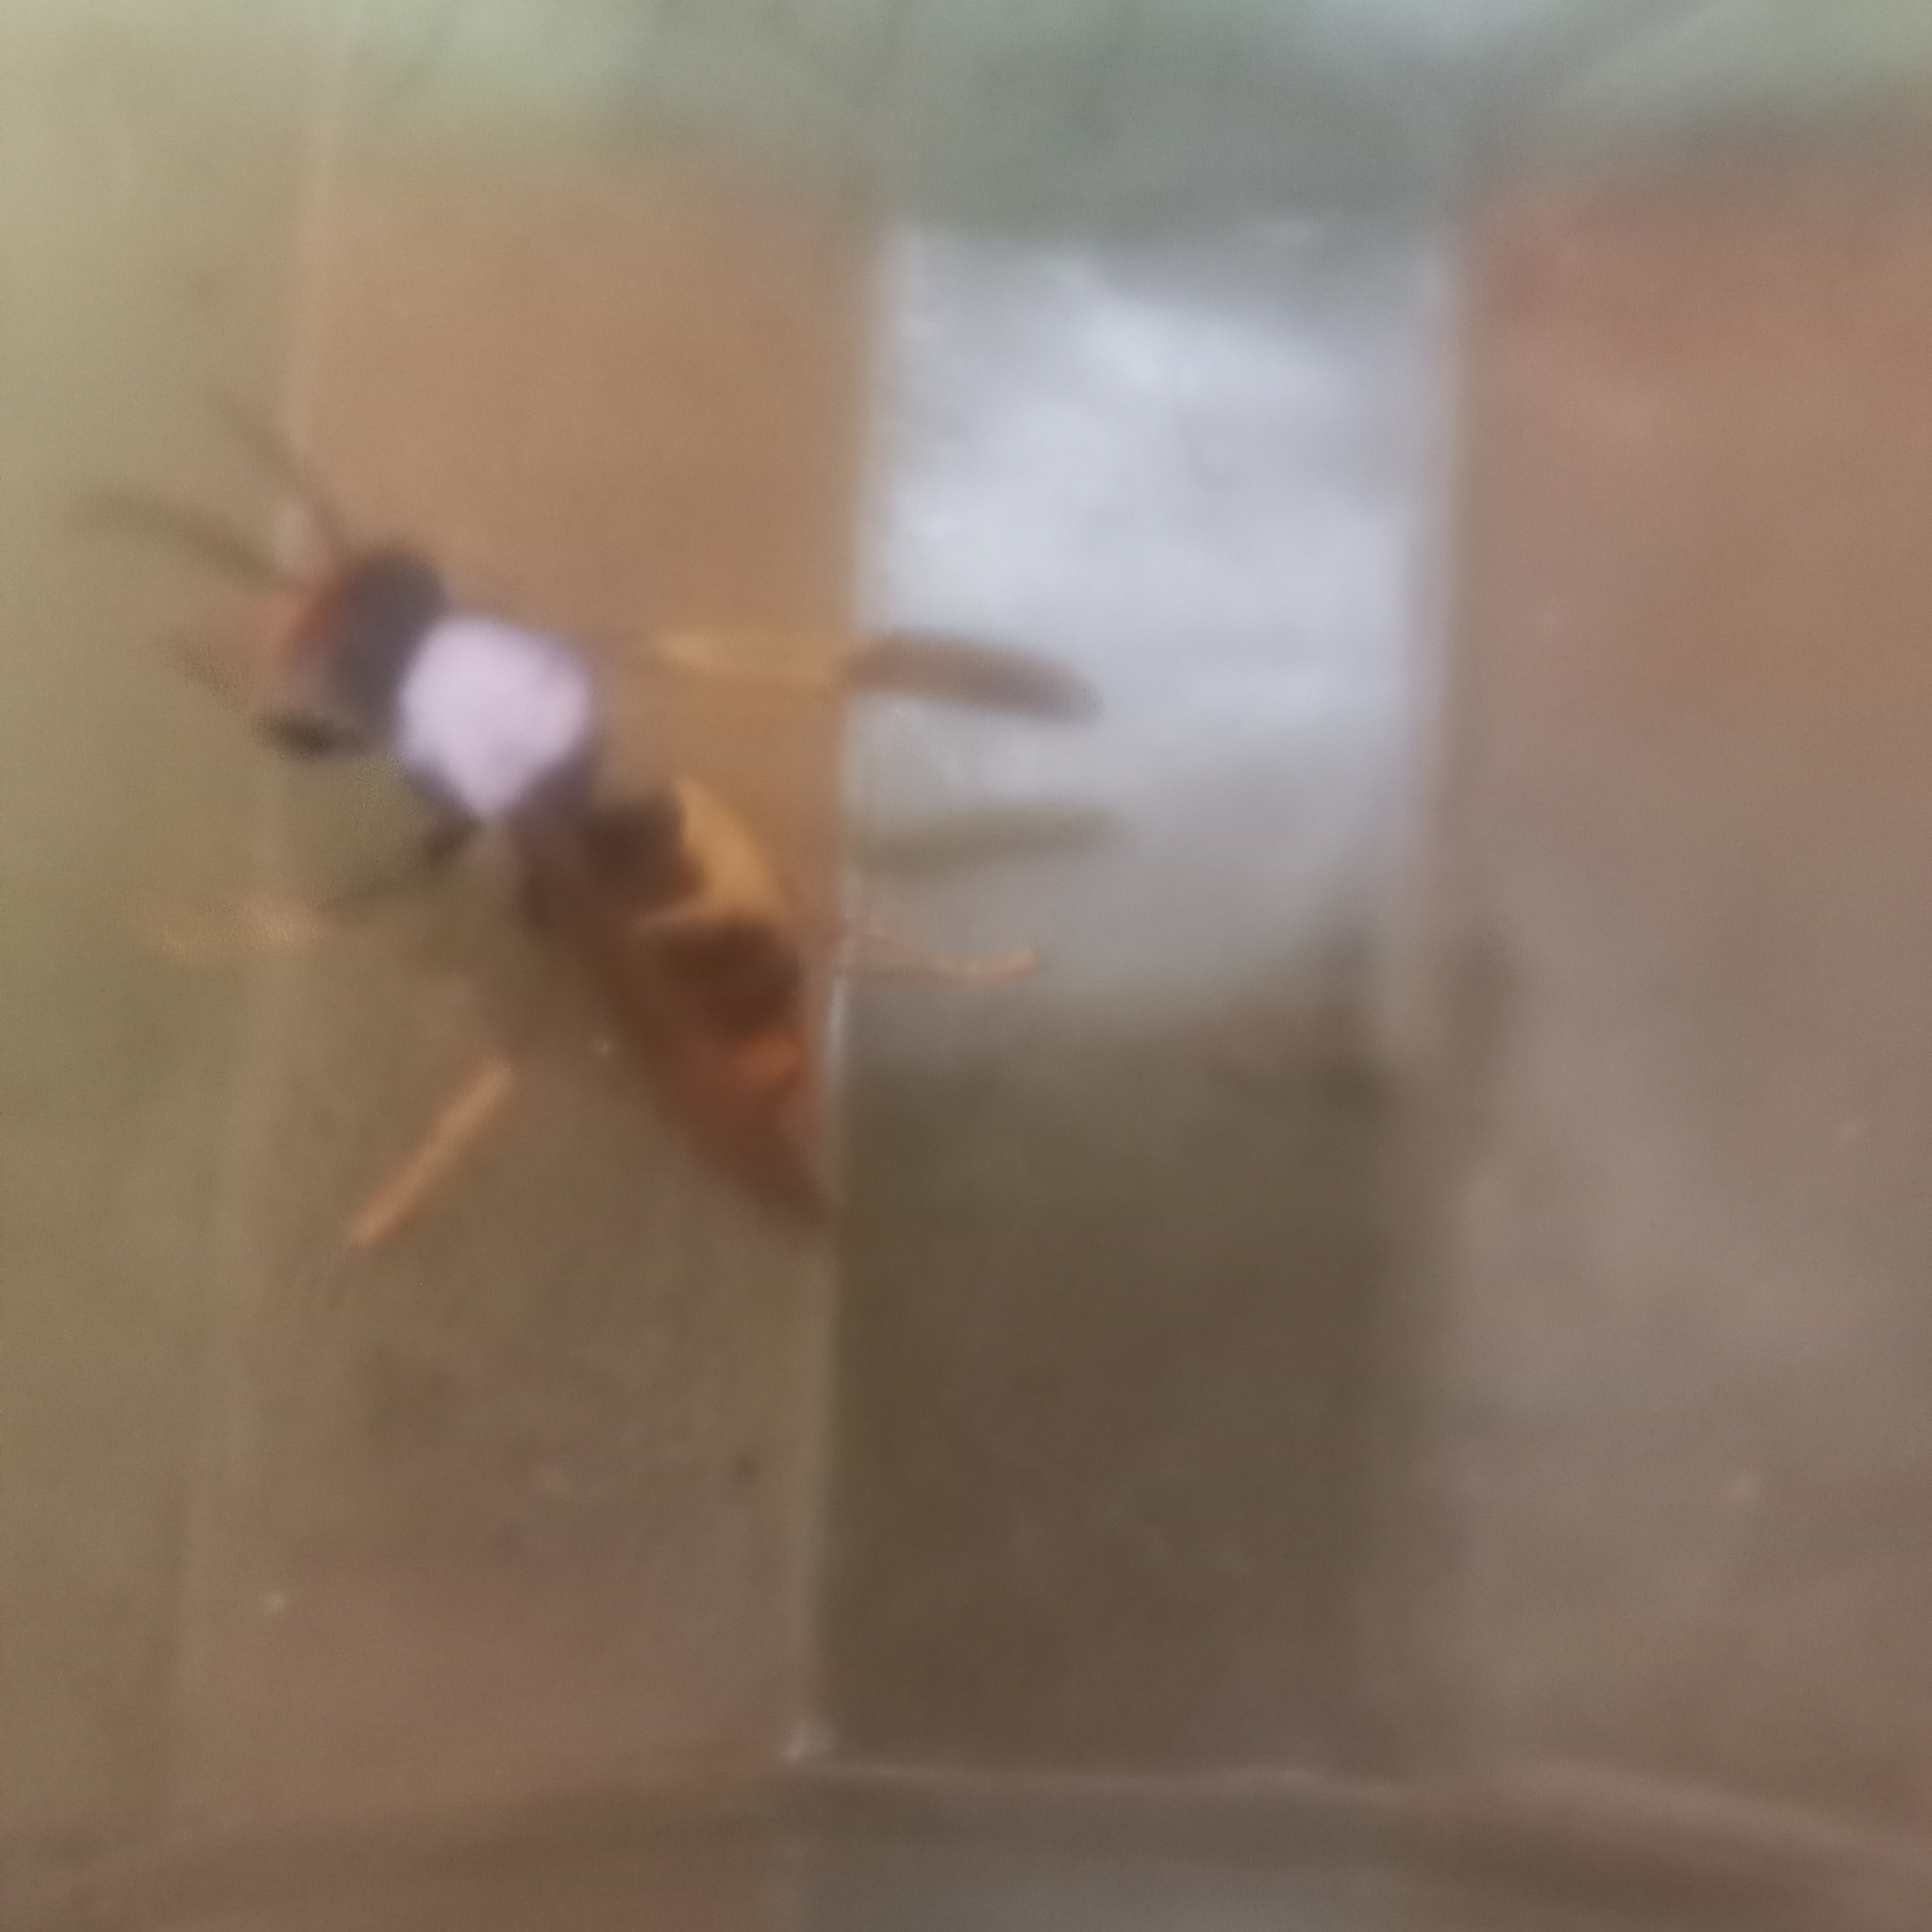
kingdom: Animalia
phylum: Arthropoda
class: Insecta
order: Hymenoptera
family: Vespidae
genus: Vespa
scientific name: Vespa velutina
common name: Asian hornet
